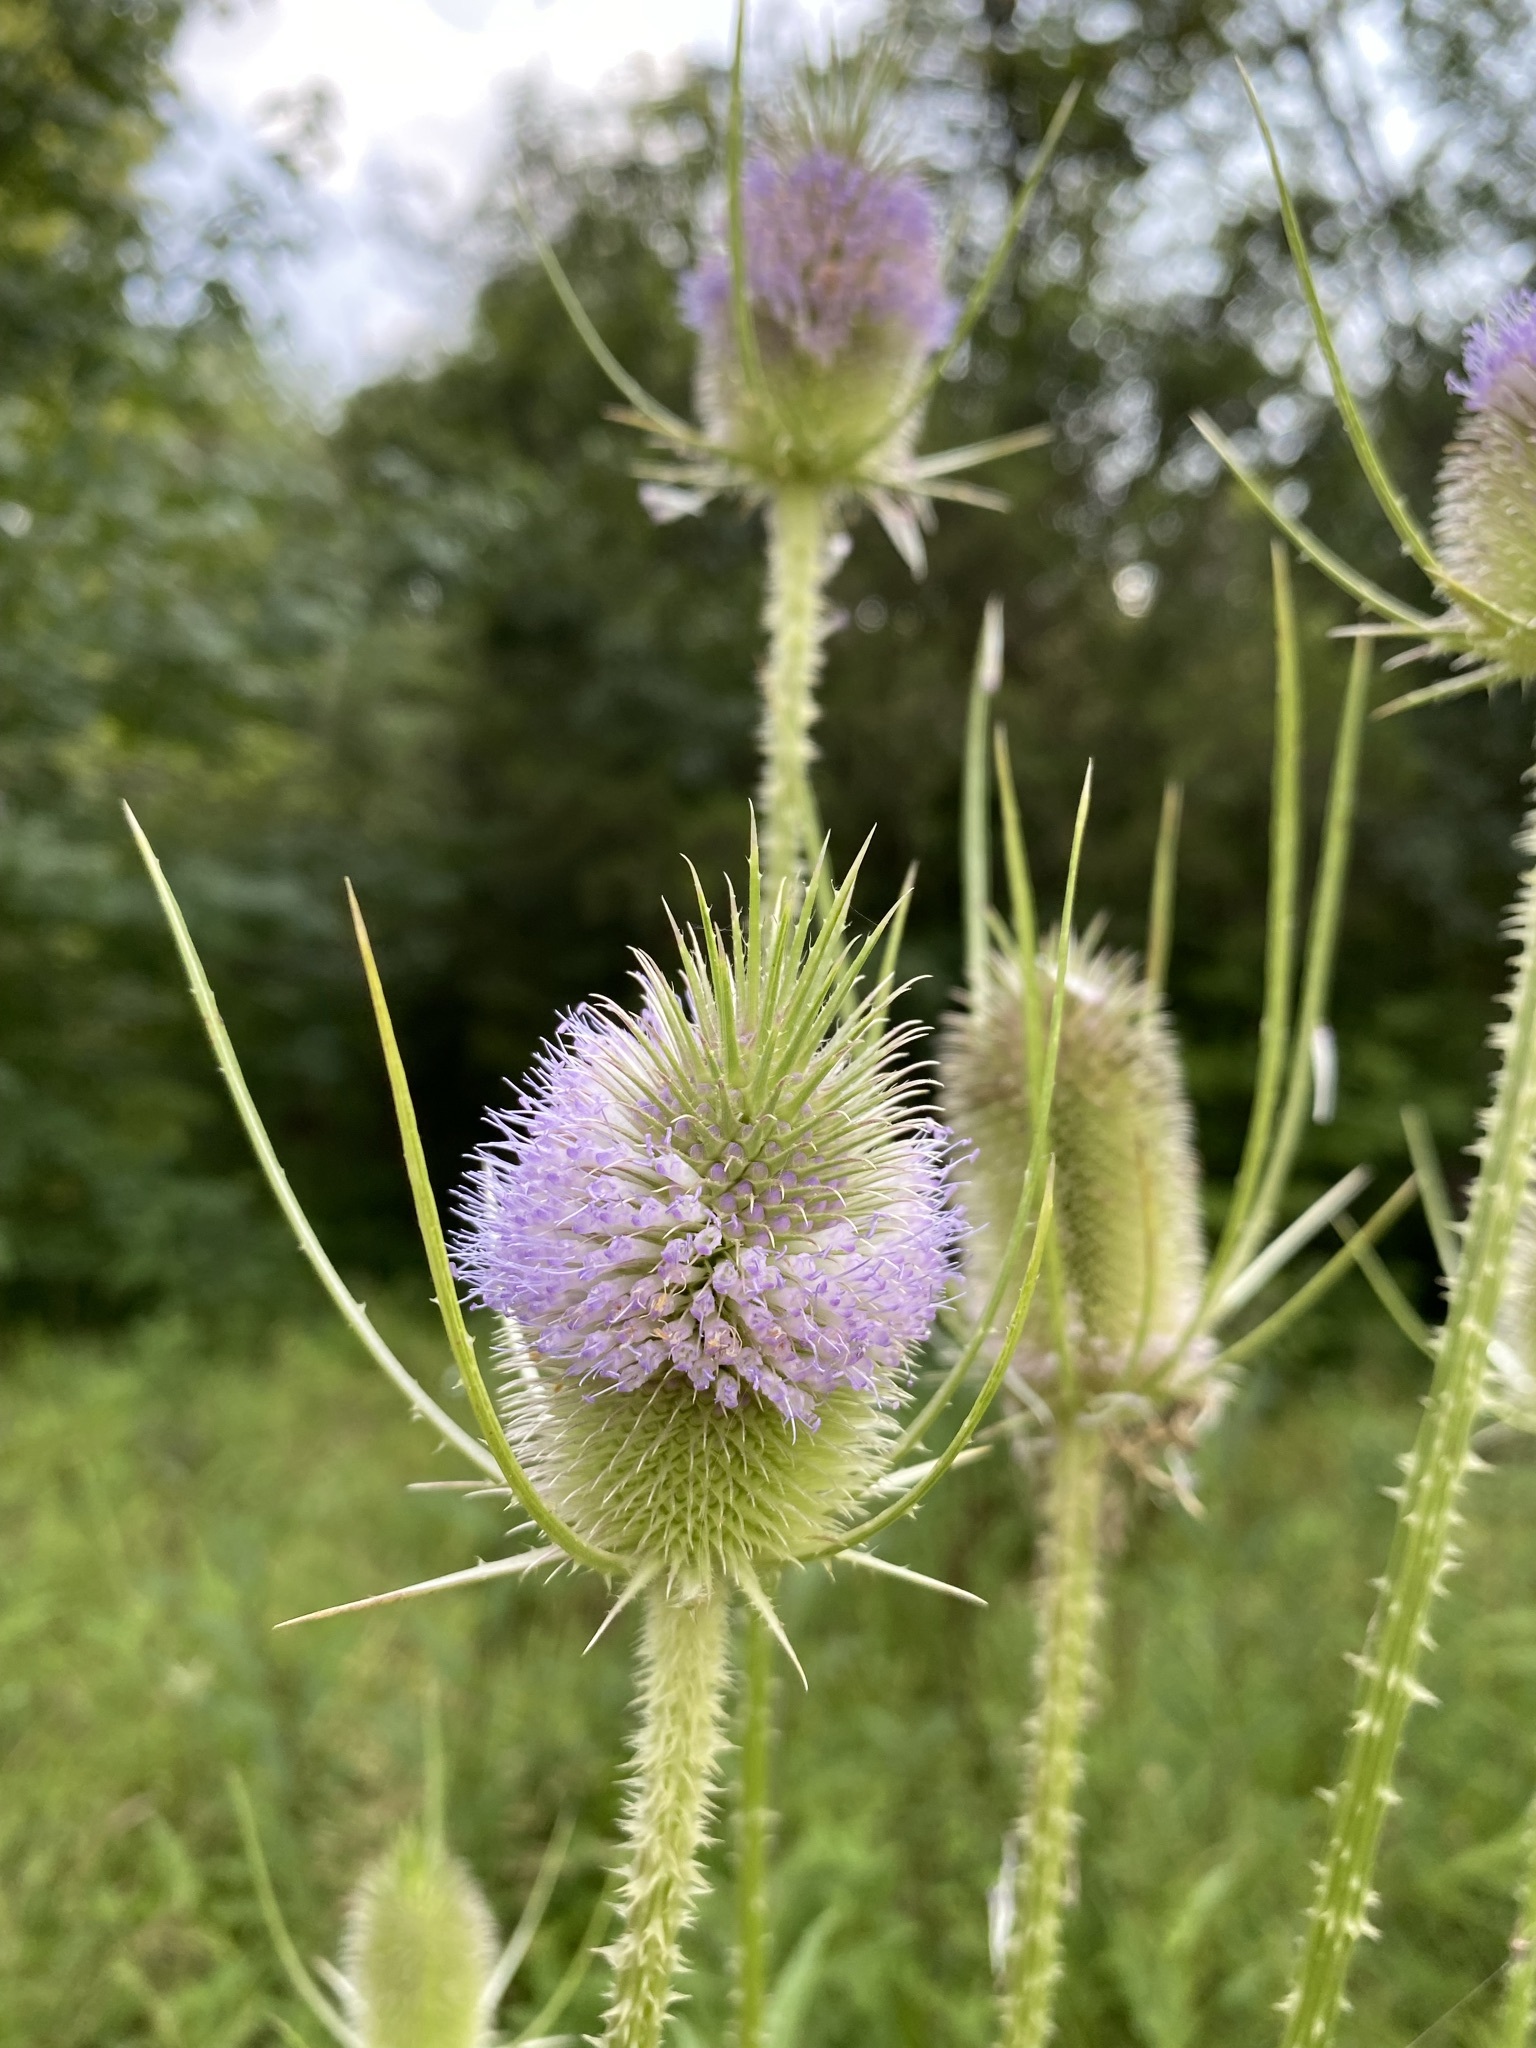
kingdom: Plantae
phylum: Tracheophyta
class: Magnoliopsida
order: Dipsacales
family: Caprifoliaceae
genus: Dipsacus
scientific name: Dipsacus fullonum
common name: Teasel
